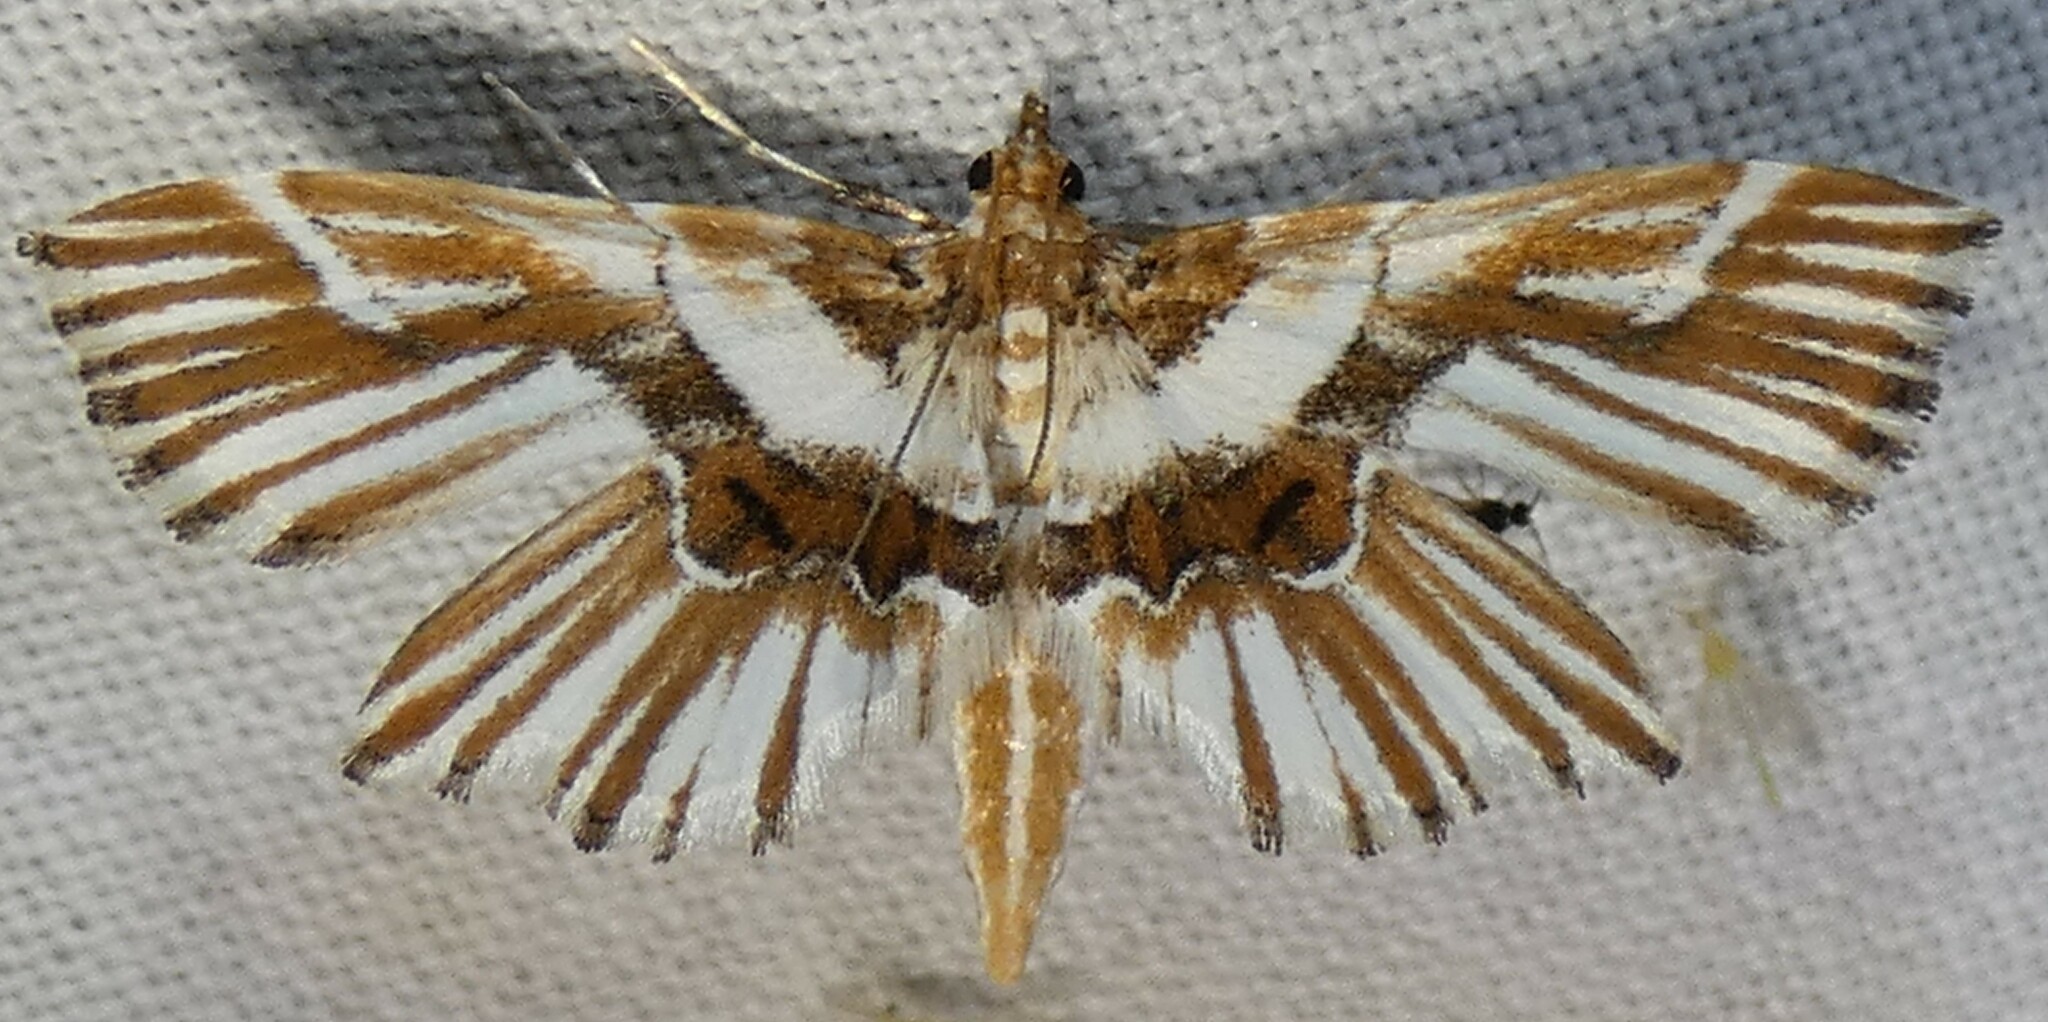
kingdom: Animalia
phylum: Arthropoda
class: Insecta
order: Lepidoptera
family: Pyralidae
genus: Undulambia
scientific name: Undulambia striatalis
